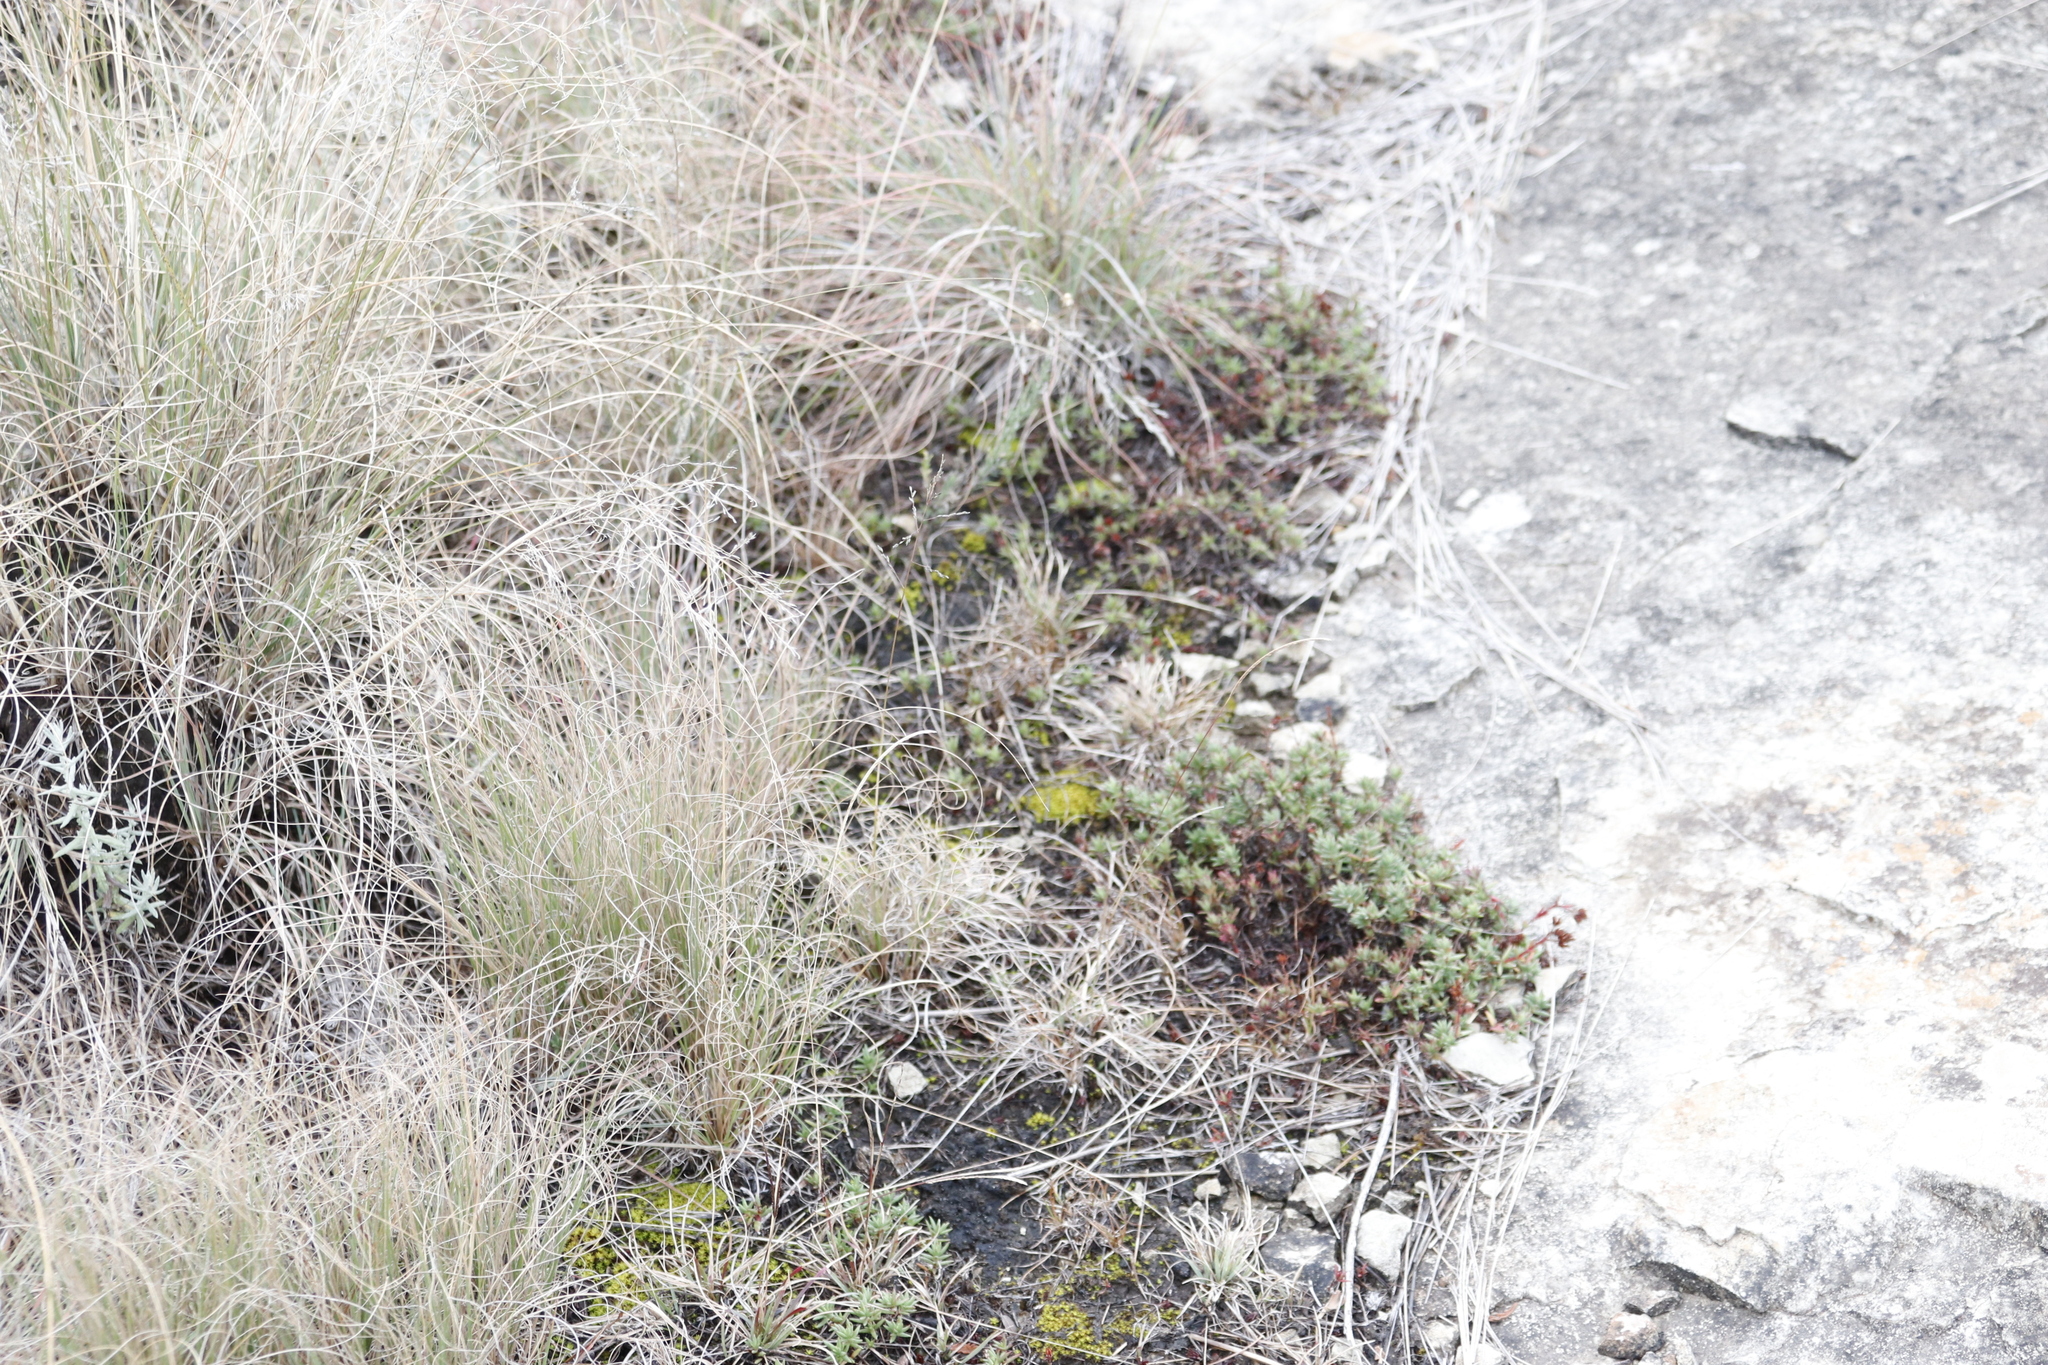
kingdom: Plantae
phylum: Tracheophyta
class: Magnoliopsida
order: Saxifragales
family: Crassulaceae
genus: Crassula
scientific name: Crassula dependens
